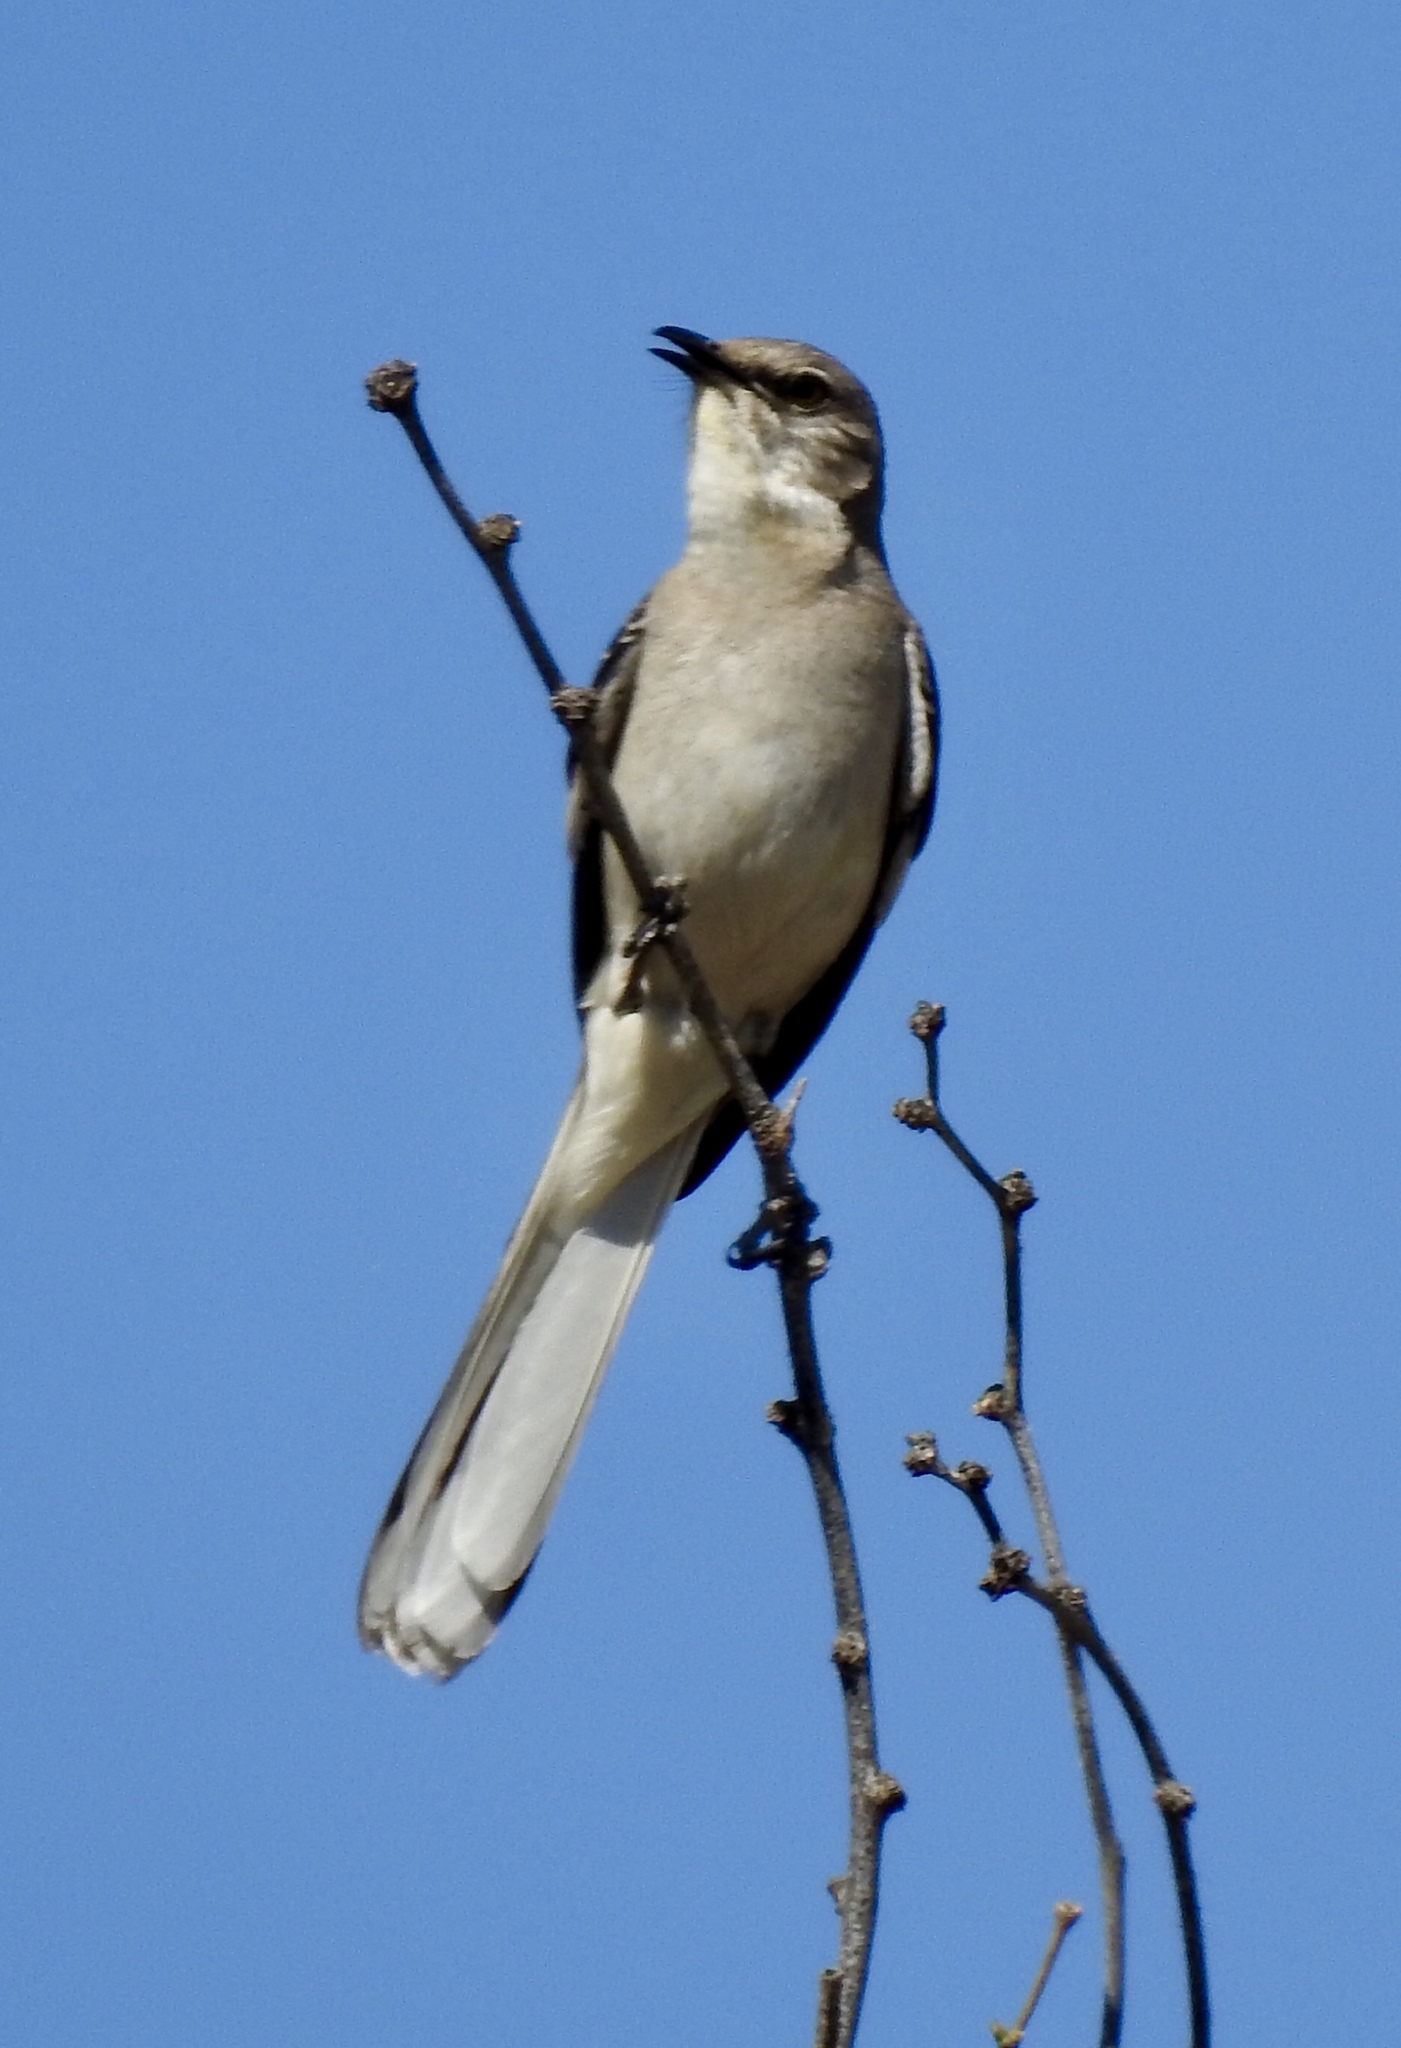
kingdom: Animalia
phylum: Chordata
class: Aves
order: Passeriformes
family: Mimidae
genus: Mimus
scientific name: Mimus polyglottos
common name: Northern mockingbird
